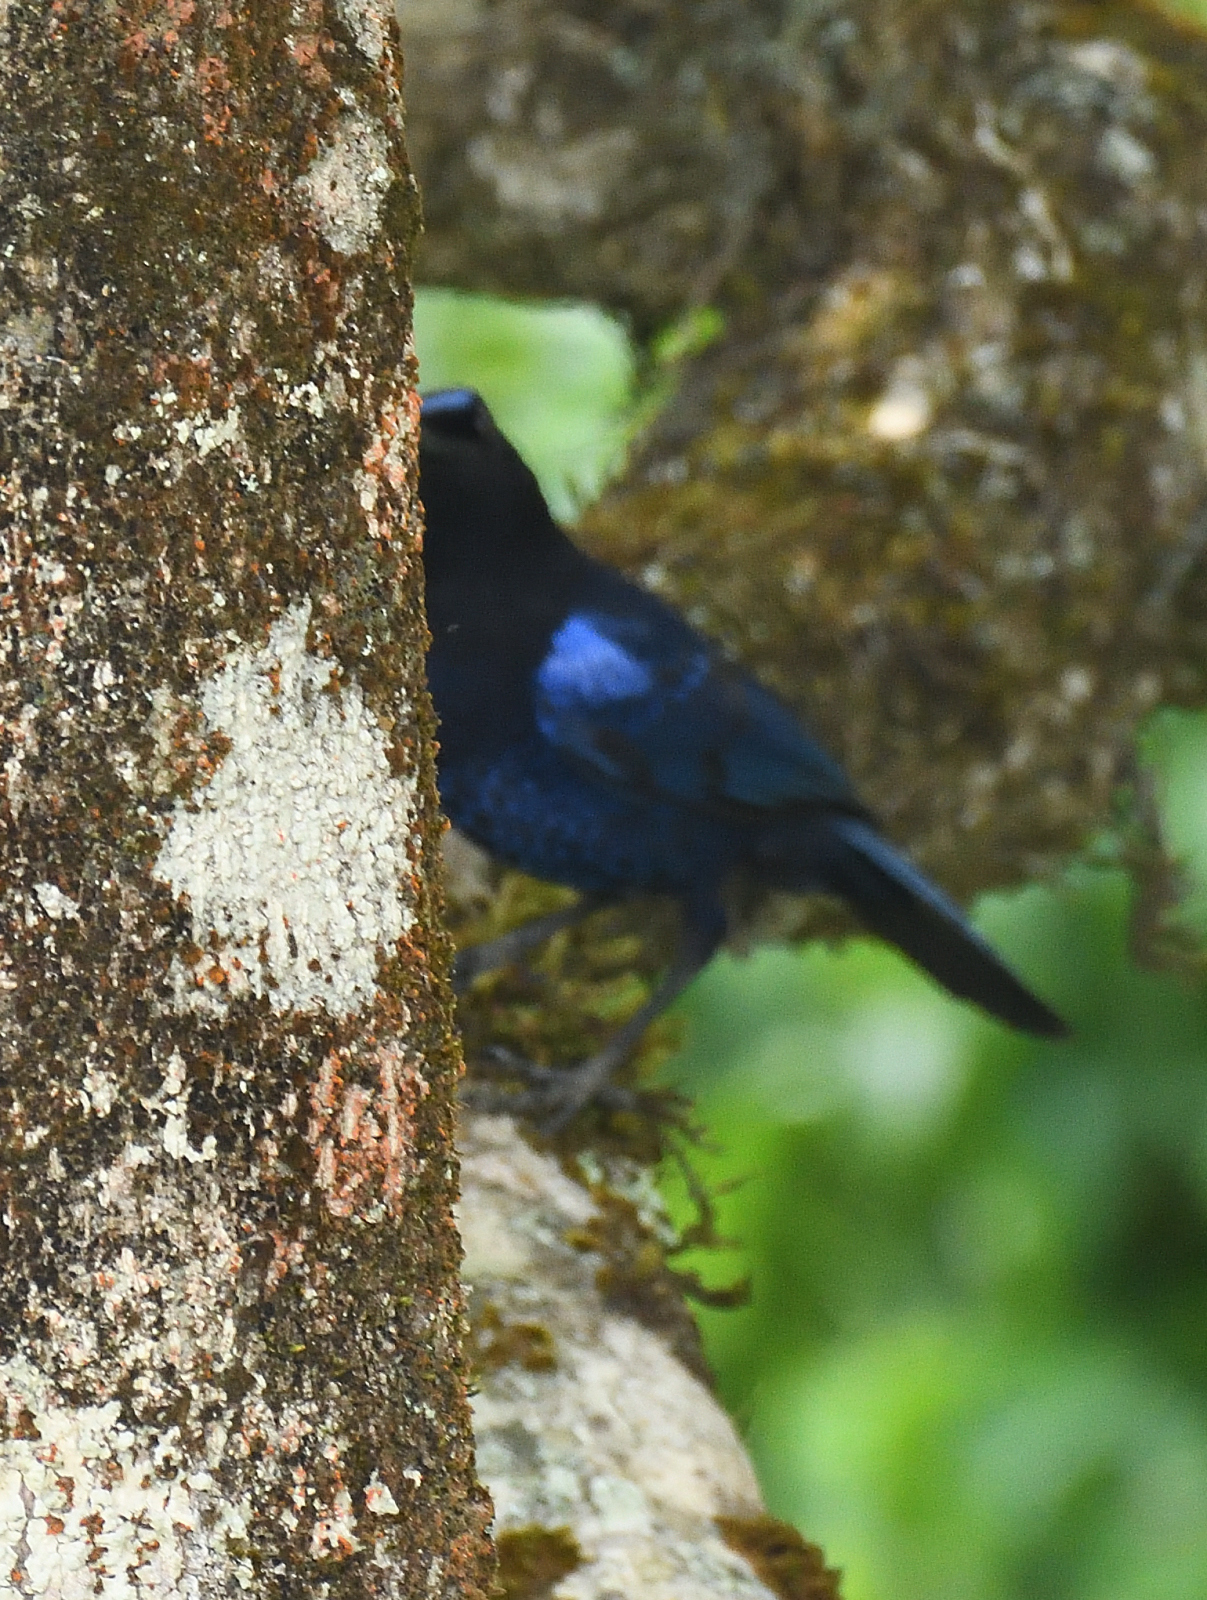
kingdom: Animalia
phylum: Chordata
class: Aves
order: Passeriformes
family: Muscicapidae
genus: Myophonus
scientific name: Myophonus horsfieldii
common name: Malabar whistling-thrush
